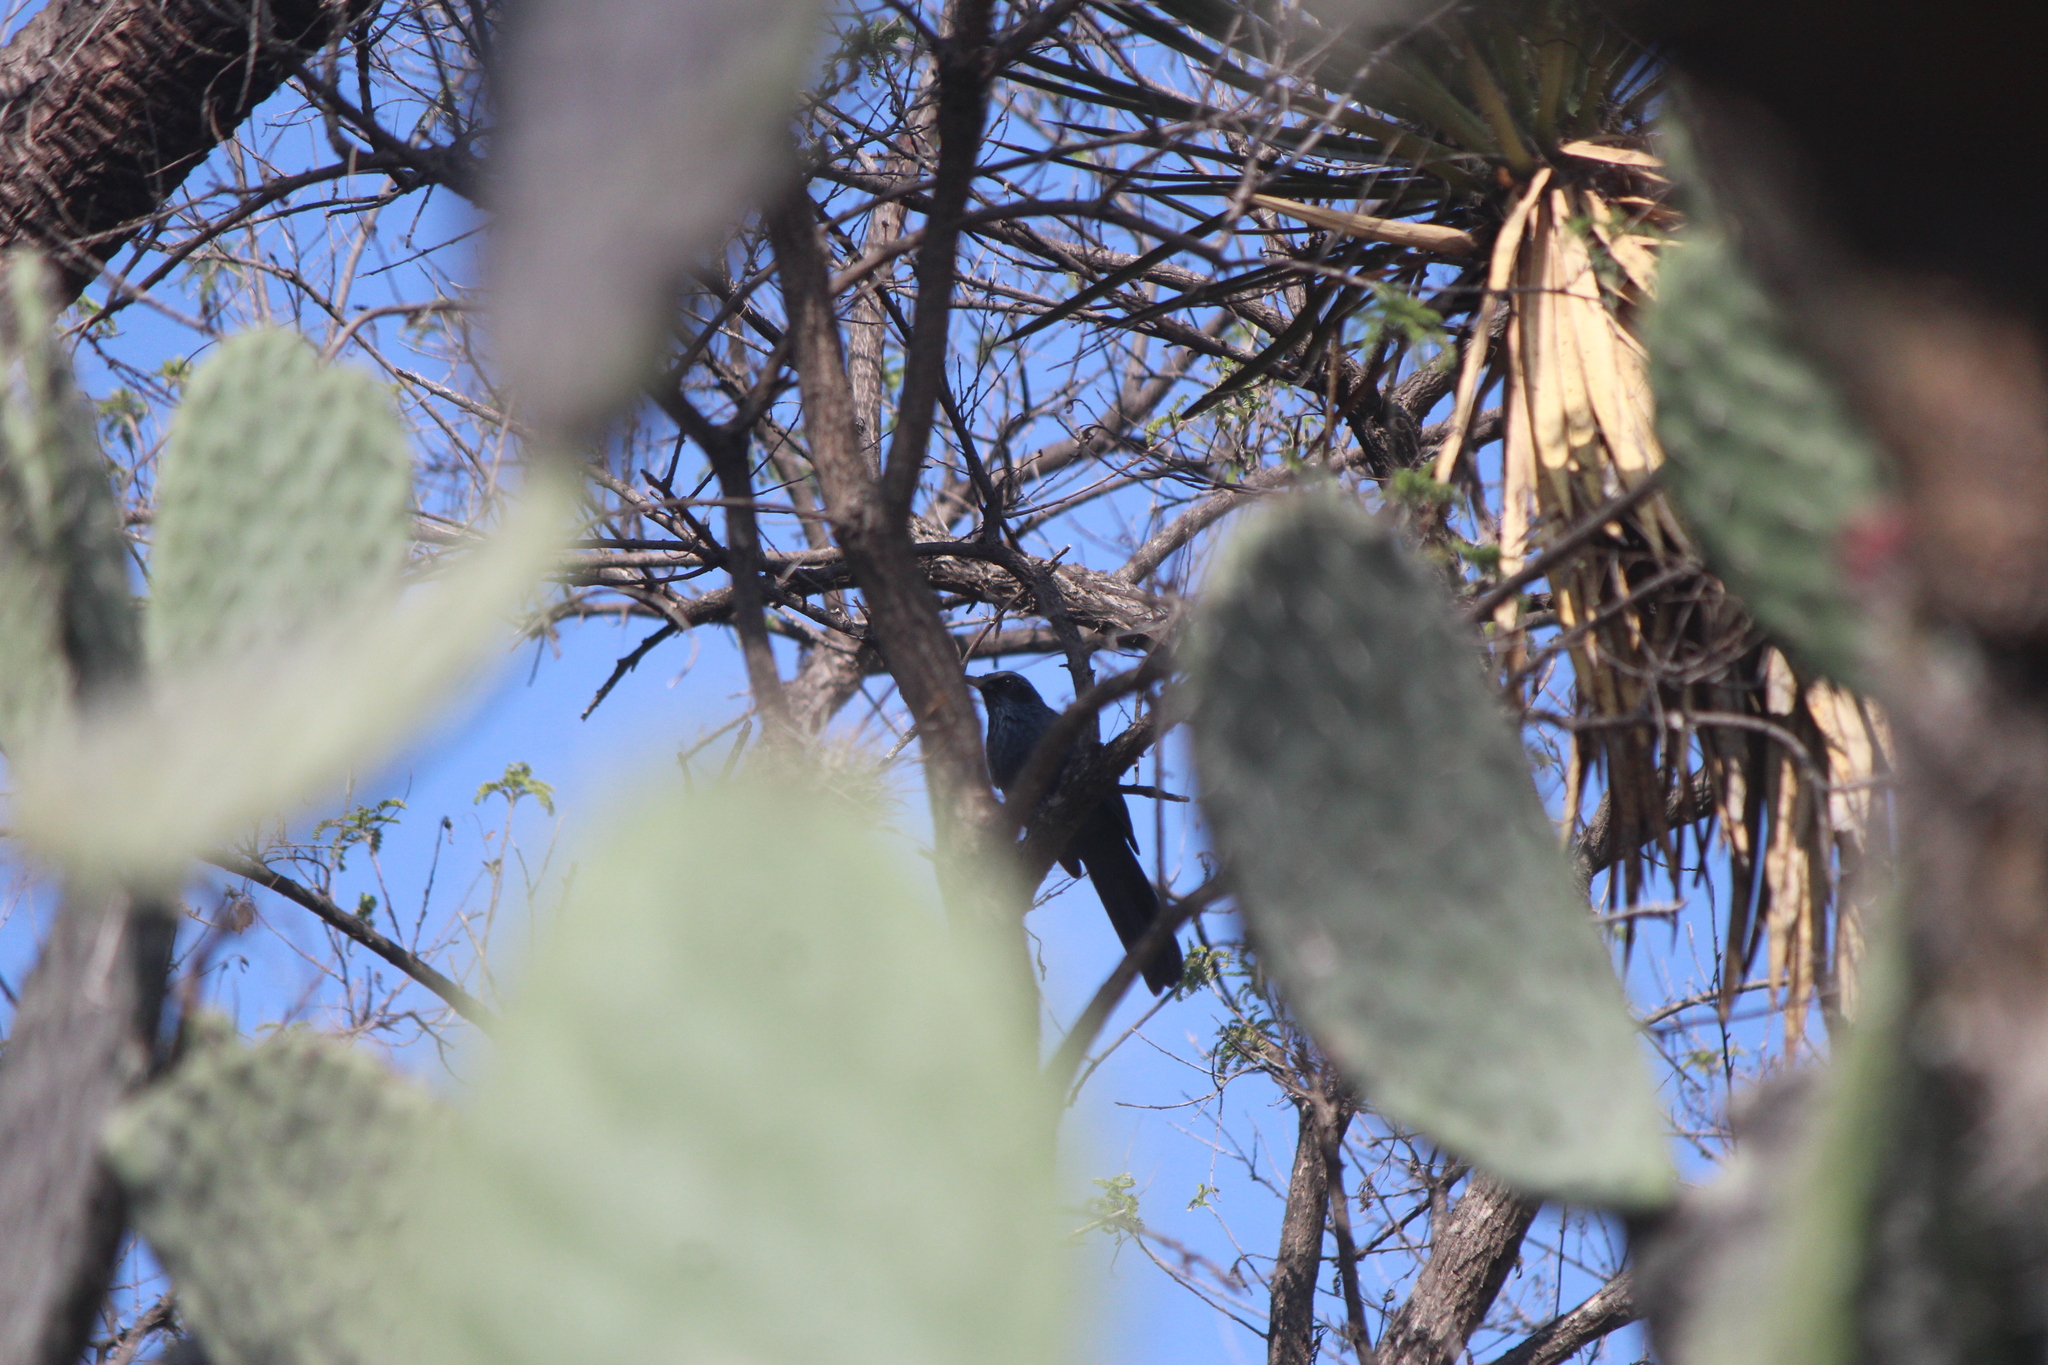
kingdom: Animalia
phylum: Chordata
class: Aves
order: Passeriformes
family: Mimidae
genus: Melanotis
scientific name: Melanotis caerulescens
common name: Blue mockingbird
